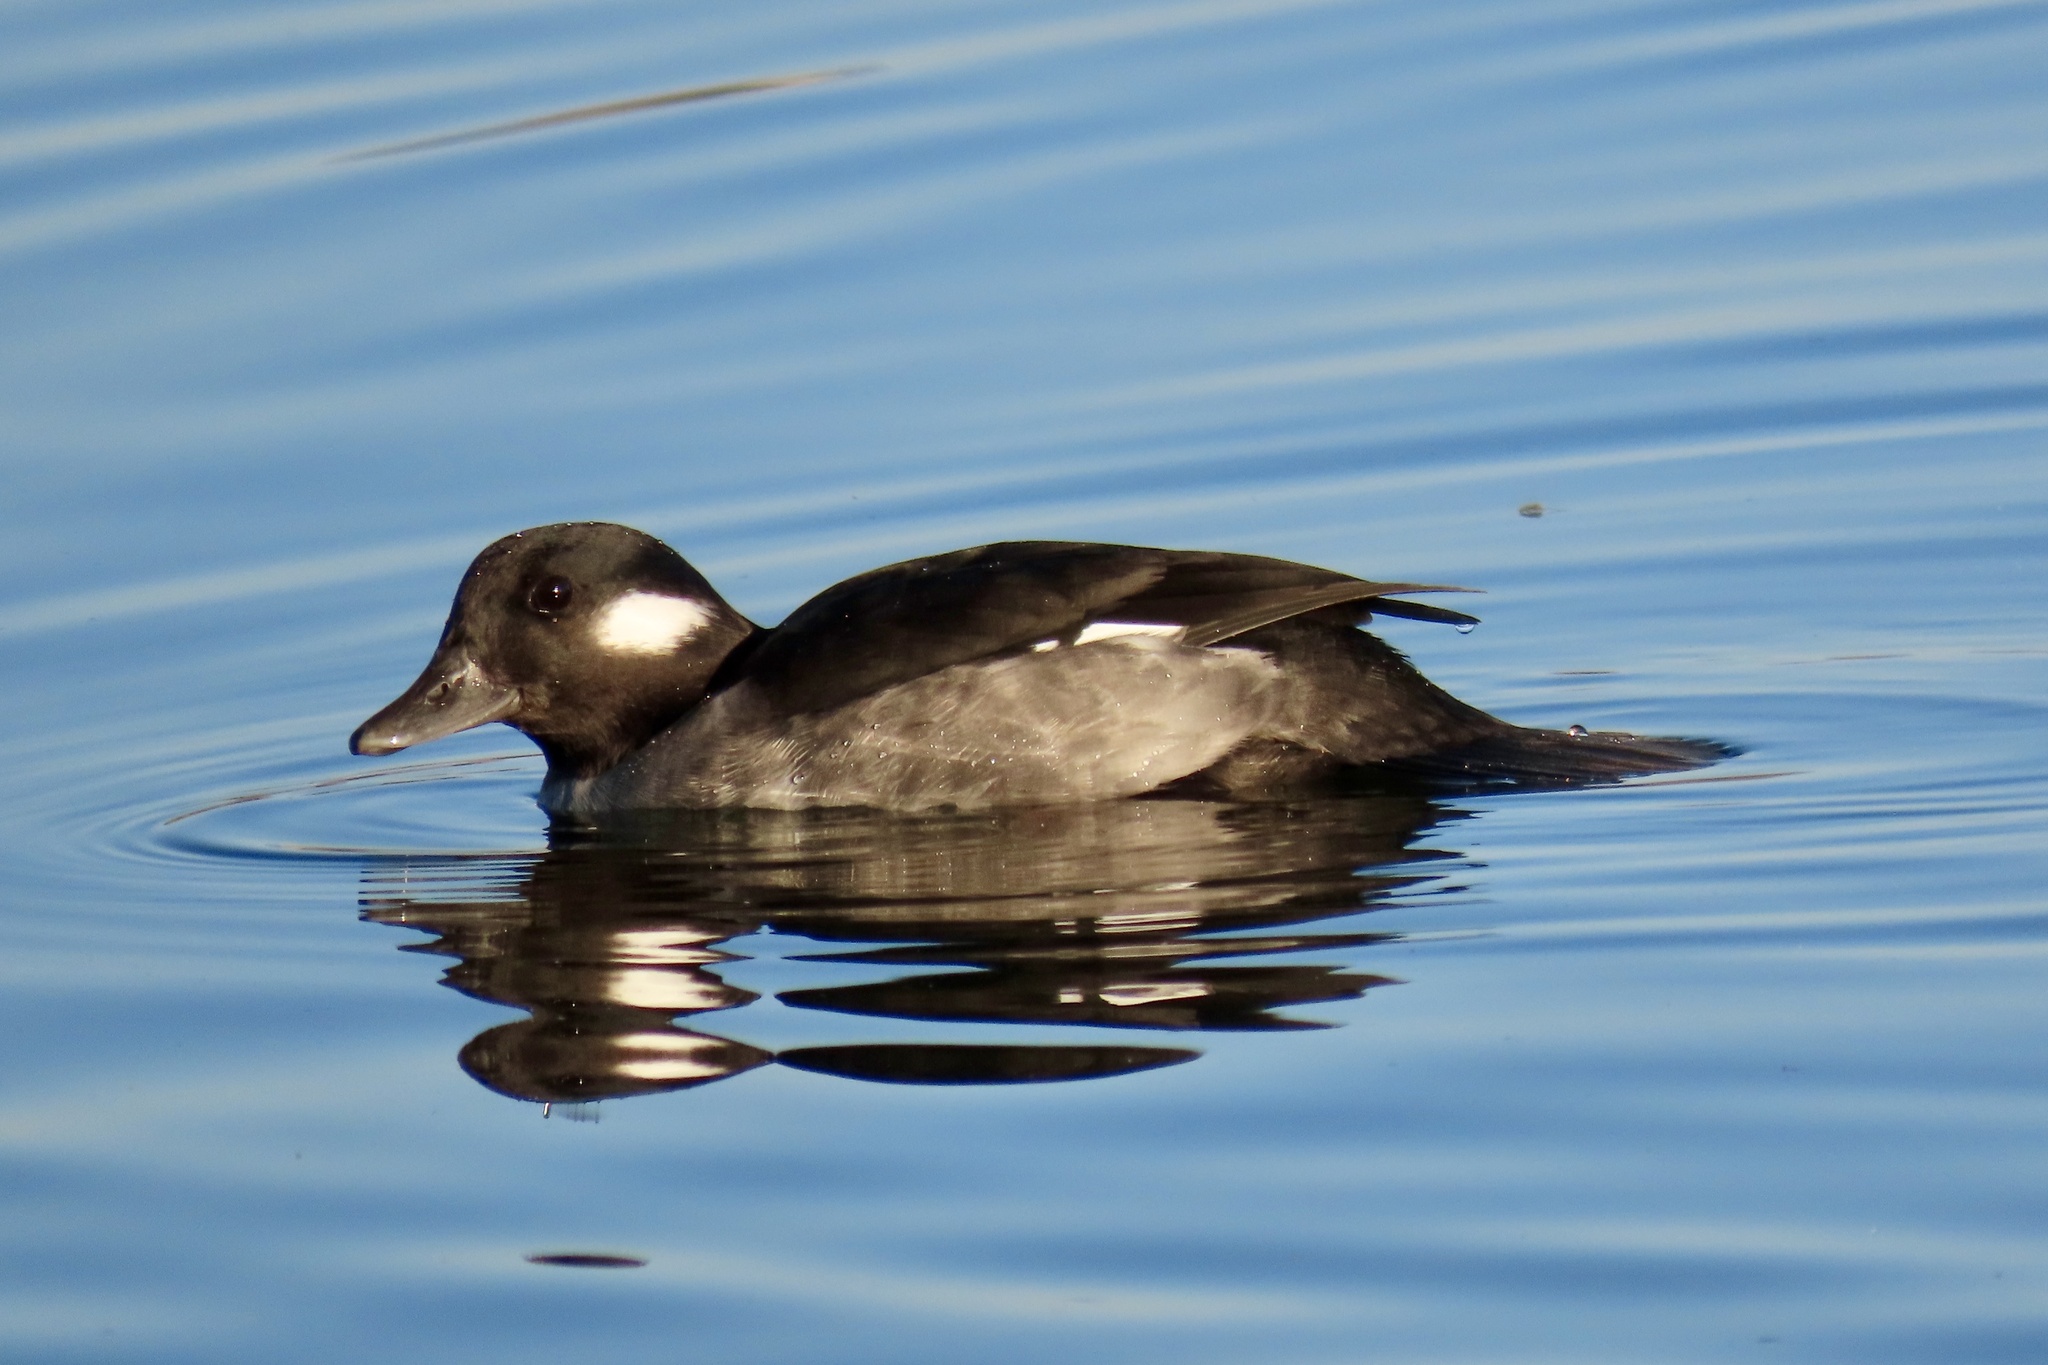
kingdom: Animalia
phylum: Chordata
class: Aves
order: Anseriformes
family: Anatidae
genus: Bucephala
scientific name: Bucephala albeola
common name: Bufflehead
